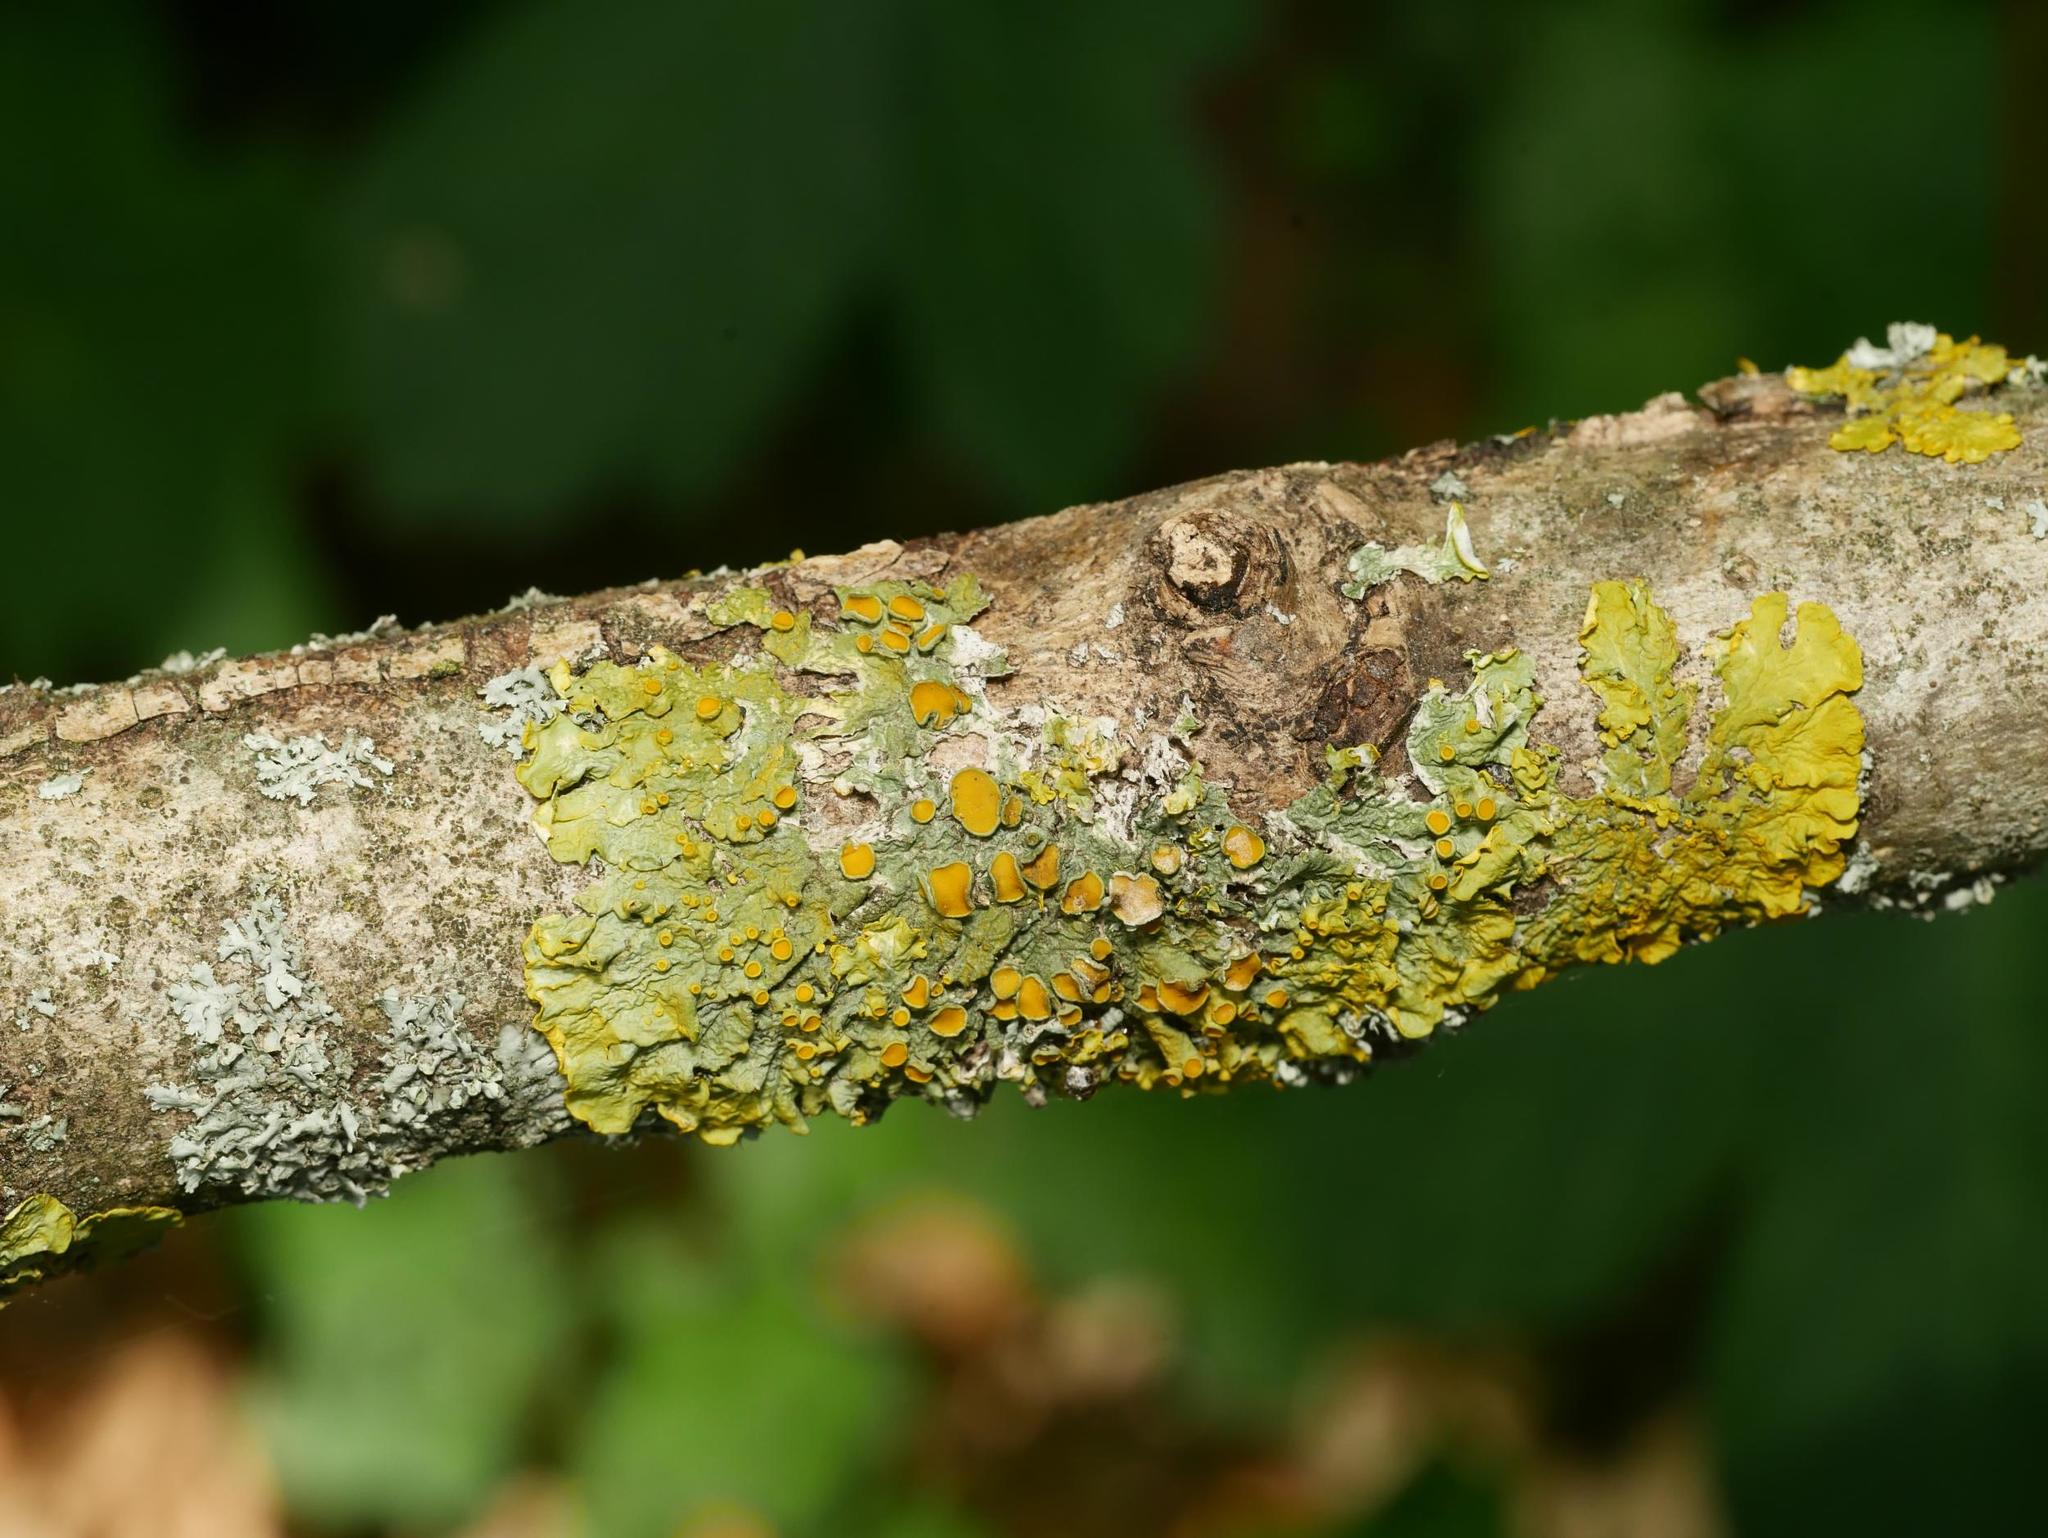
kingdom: Fungi
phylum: Ascomycota
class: Lecanoromycetes
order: Teloschistales
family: Teloschistaceae
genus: Xanthoria
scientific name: Xanthoria parietina
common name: Common orange lichen
